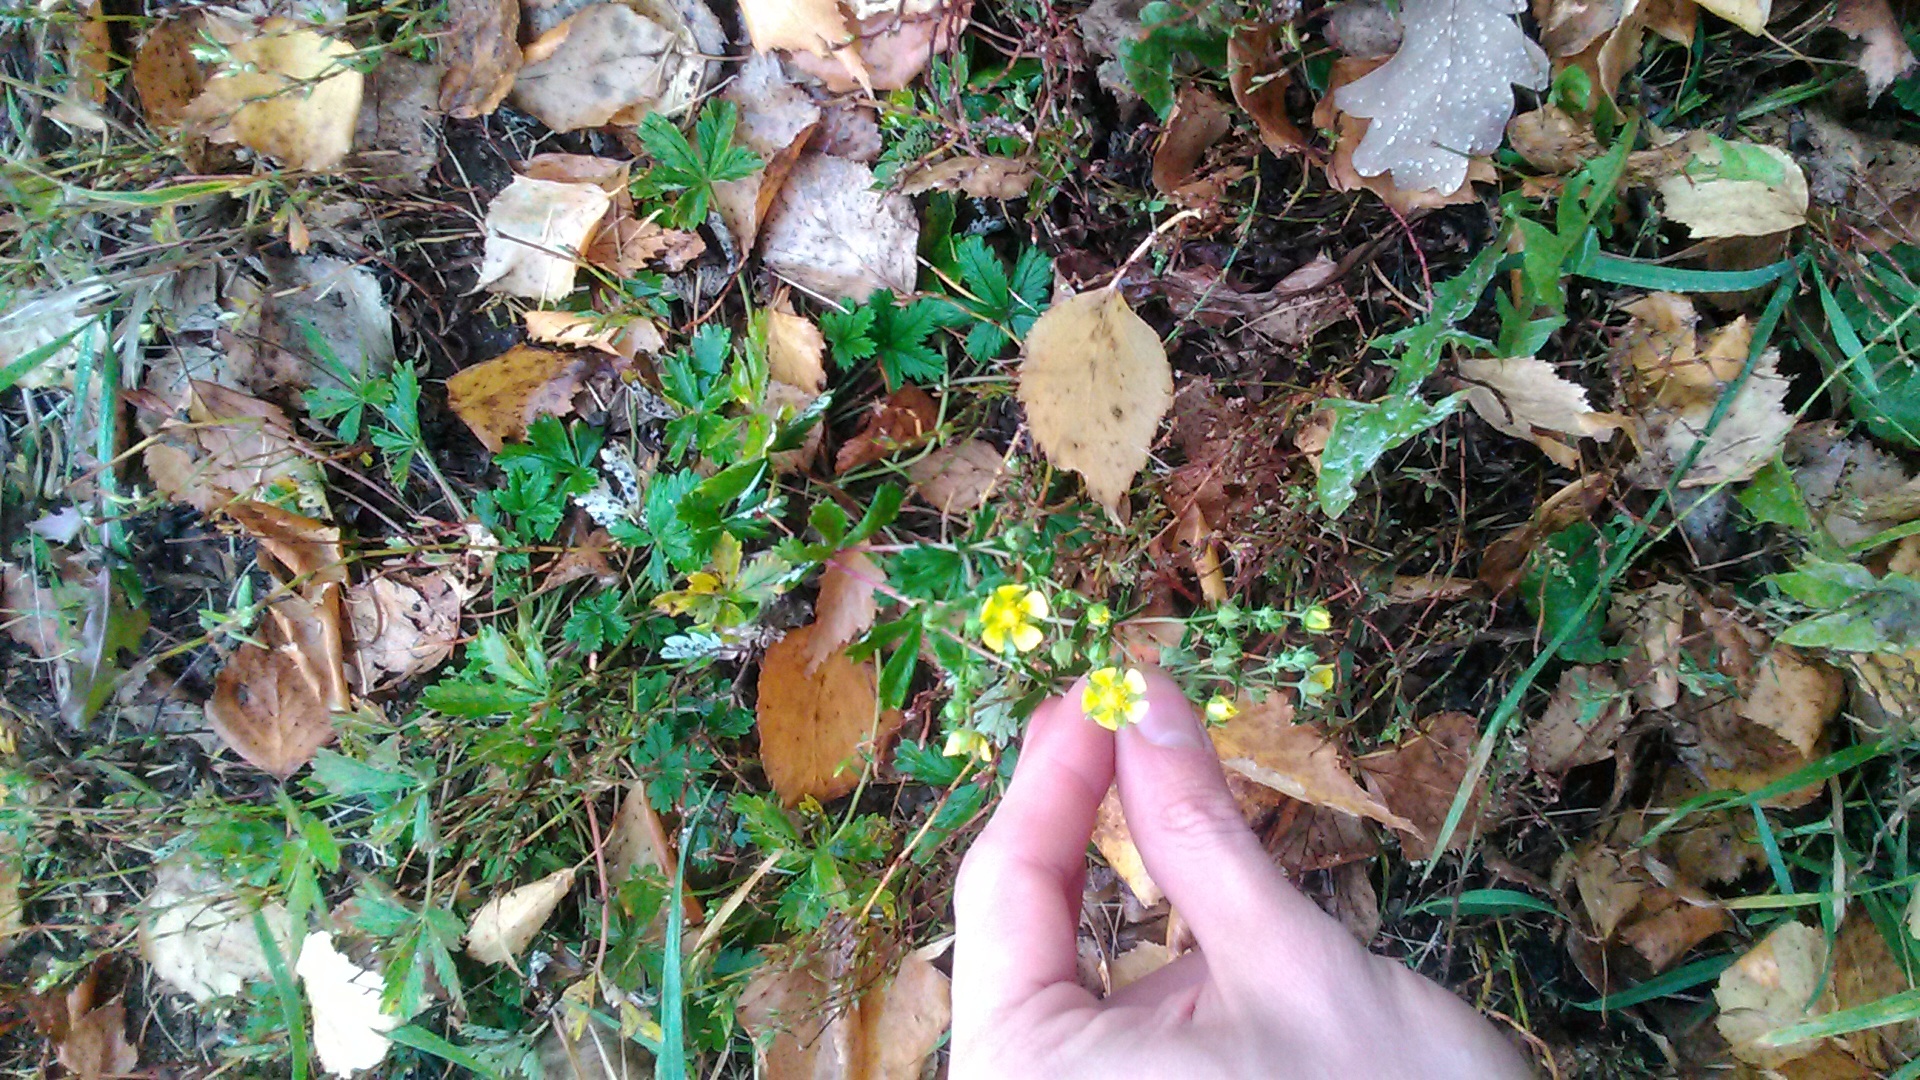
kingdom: Plantae
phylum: Tracheophyta
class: Magnoliopsida
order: Rosales
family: Rosaceae
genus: Potentilla
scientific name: Potentilla argentea
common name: Hoary cinquefoil
